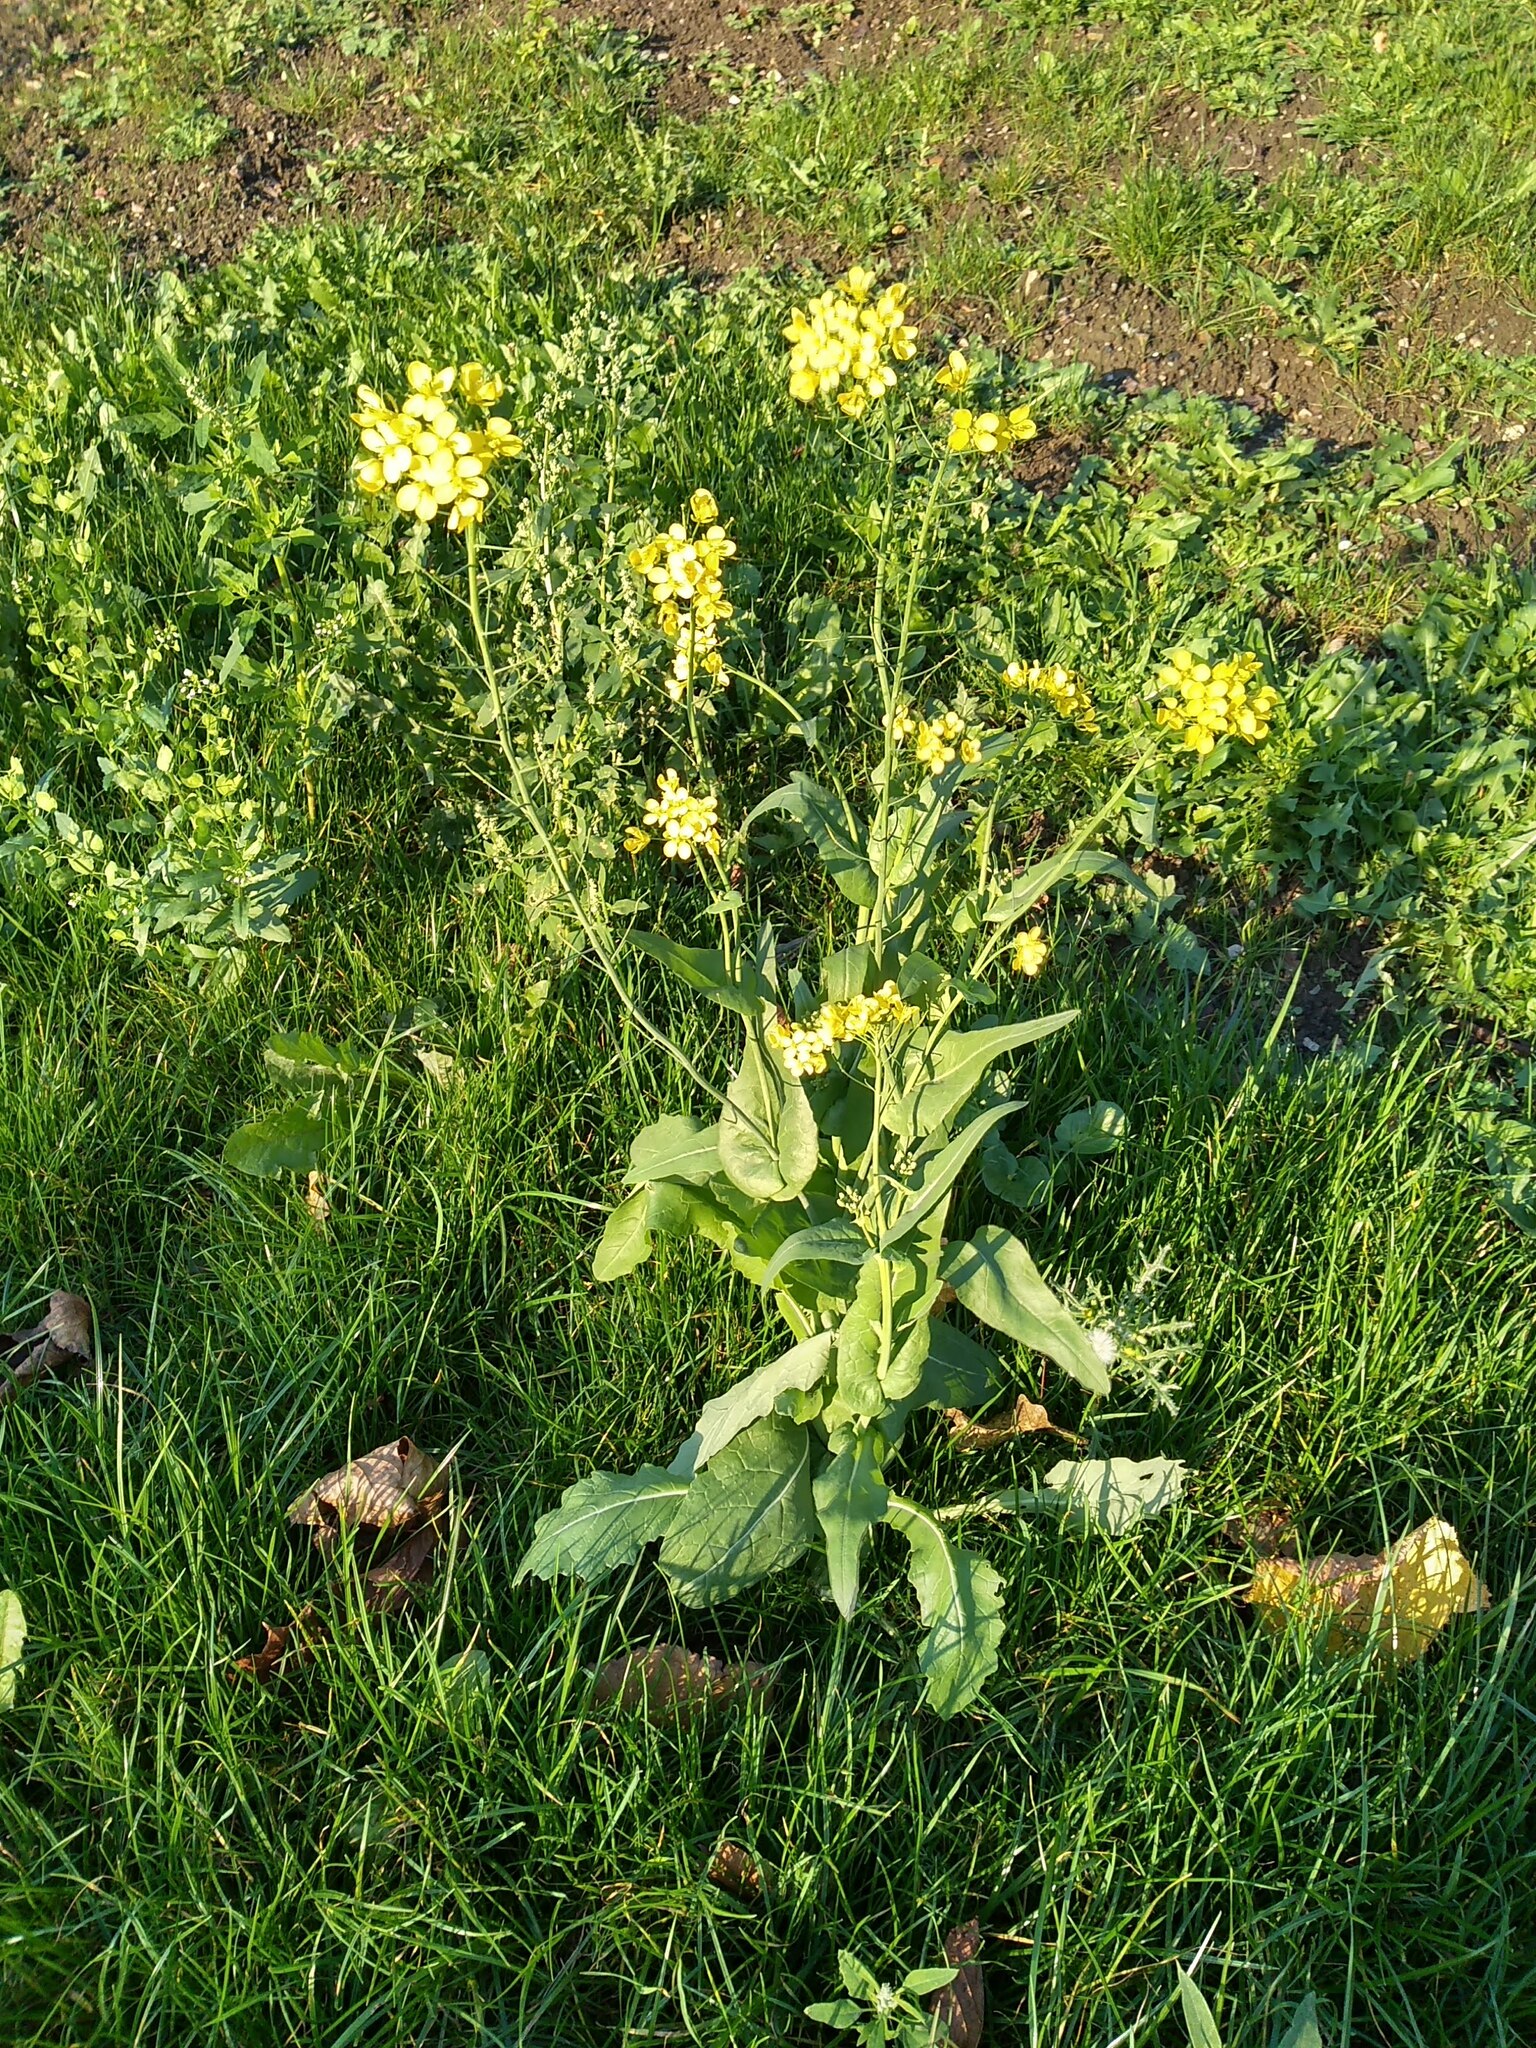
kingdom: Plantae
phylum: Tracheophyta
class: Magnoliopsida
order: Brassicales
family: Brassicaceae
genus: Brassica
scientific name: Brassica rapa
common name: Field mustard
